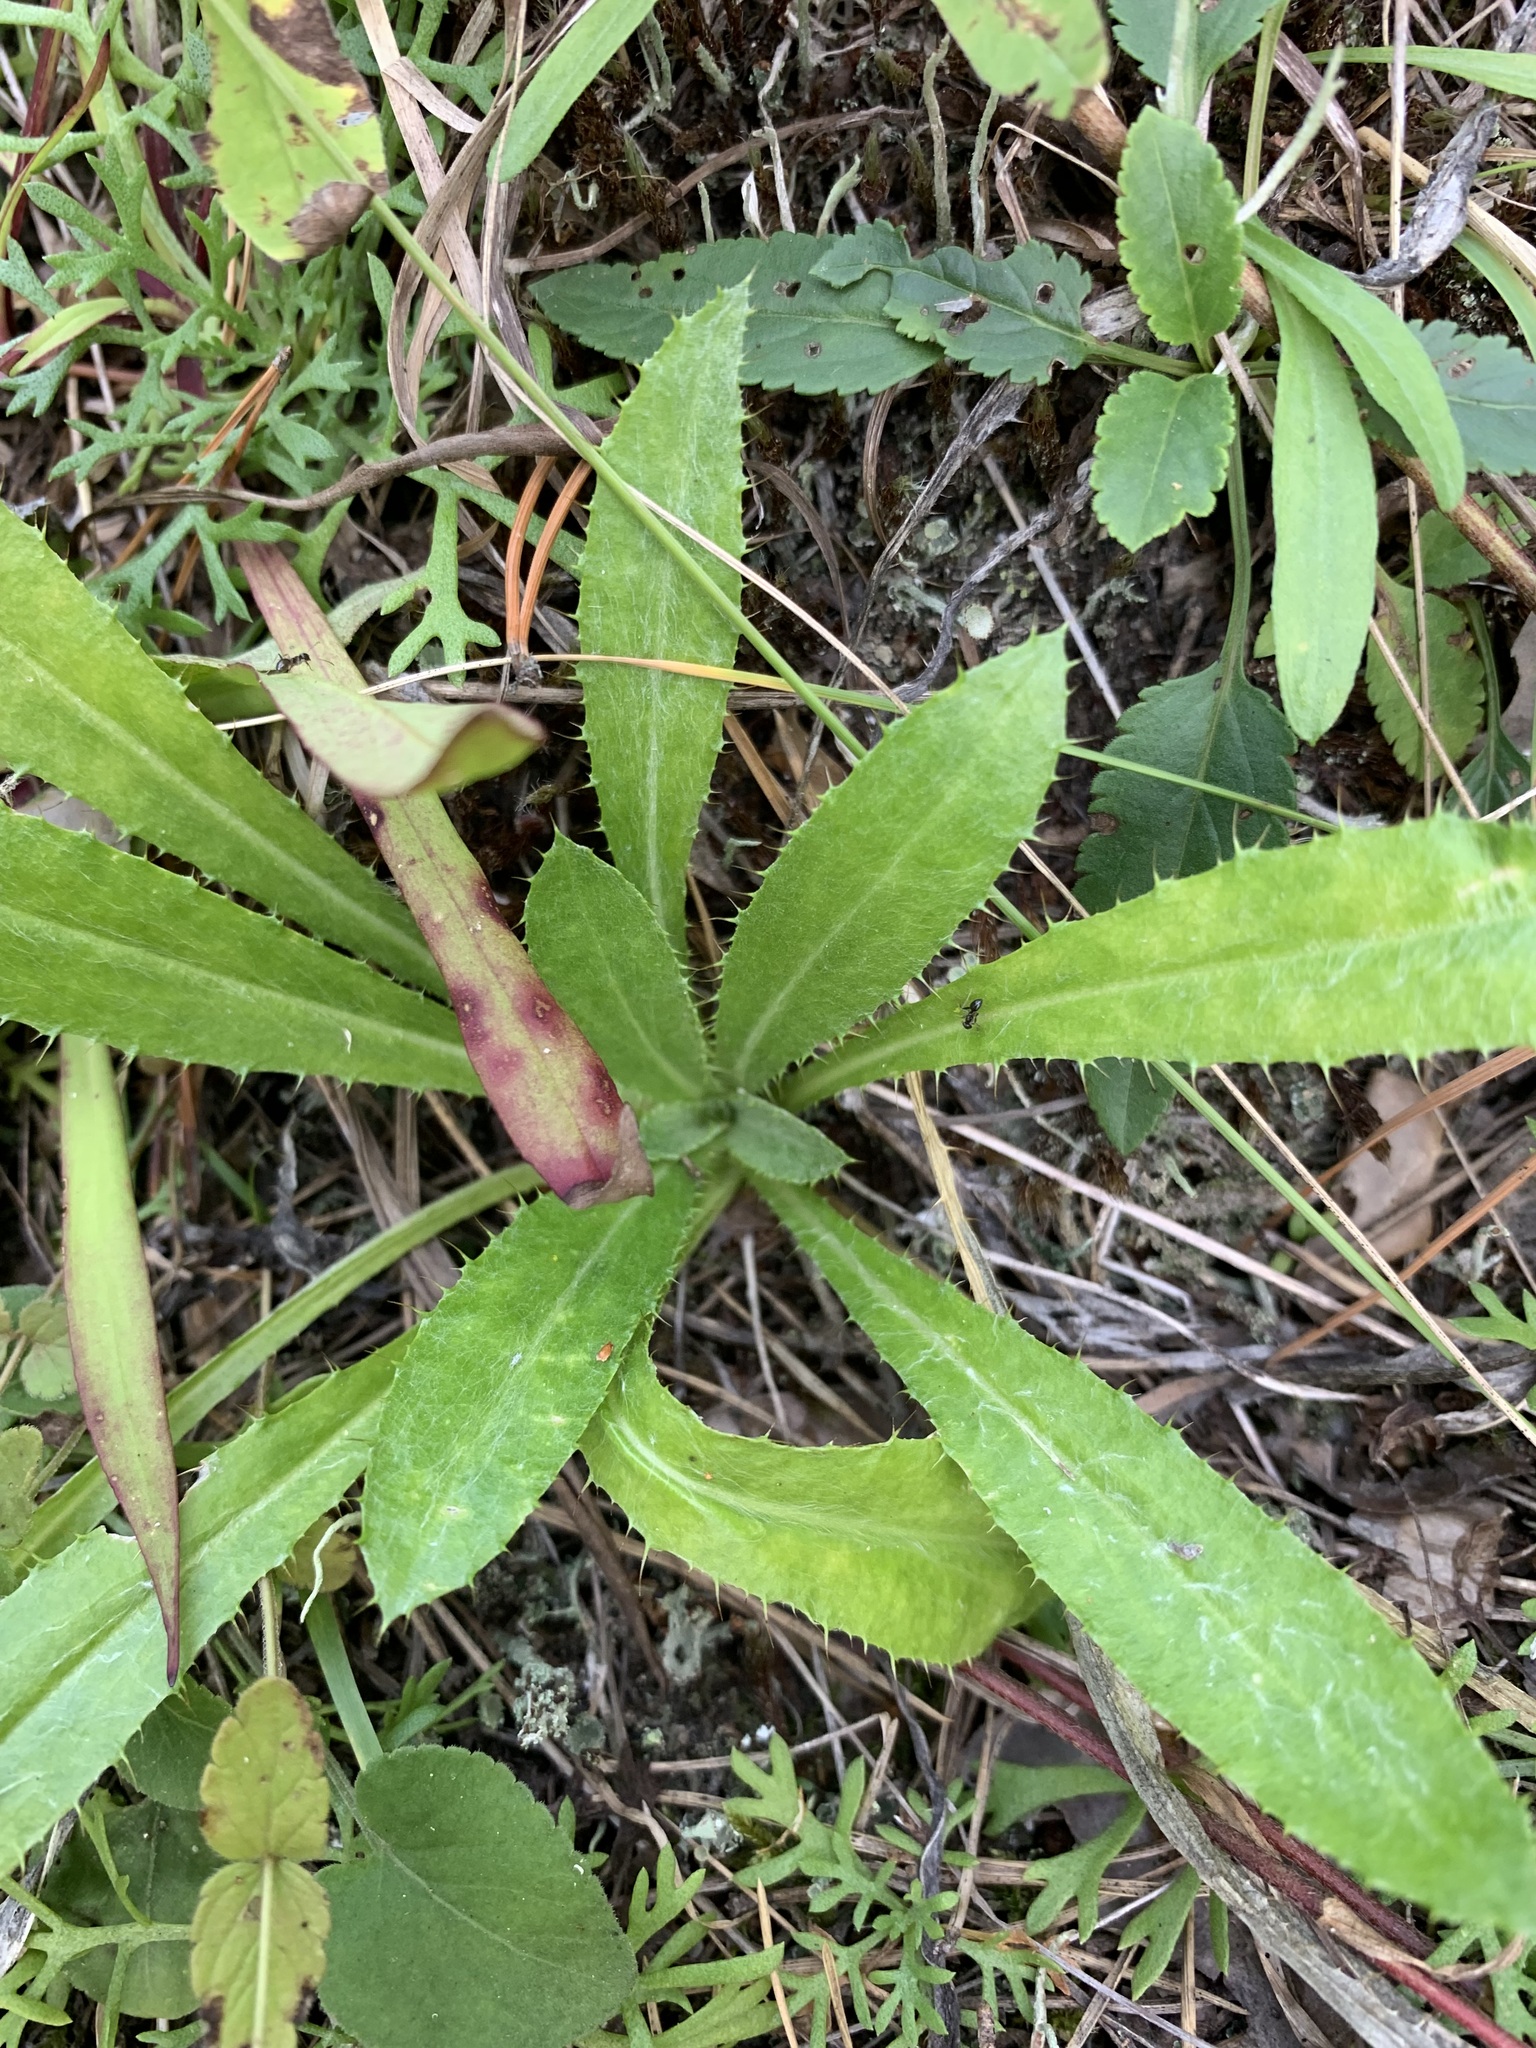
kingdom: Plantae
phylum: Tracheophyta
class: Magnoliopsida
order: Asterales
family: Asteraceae
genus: Carlina
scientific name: Carlina biebersteinii
